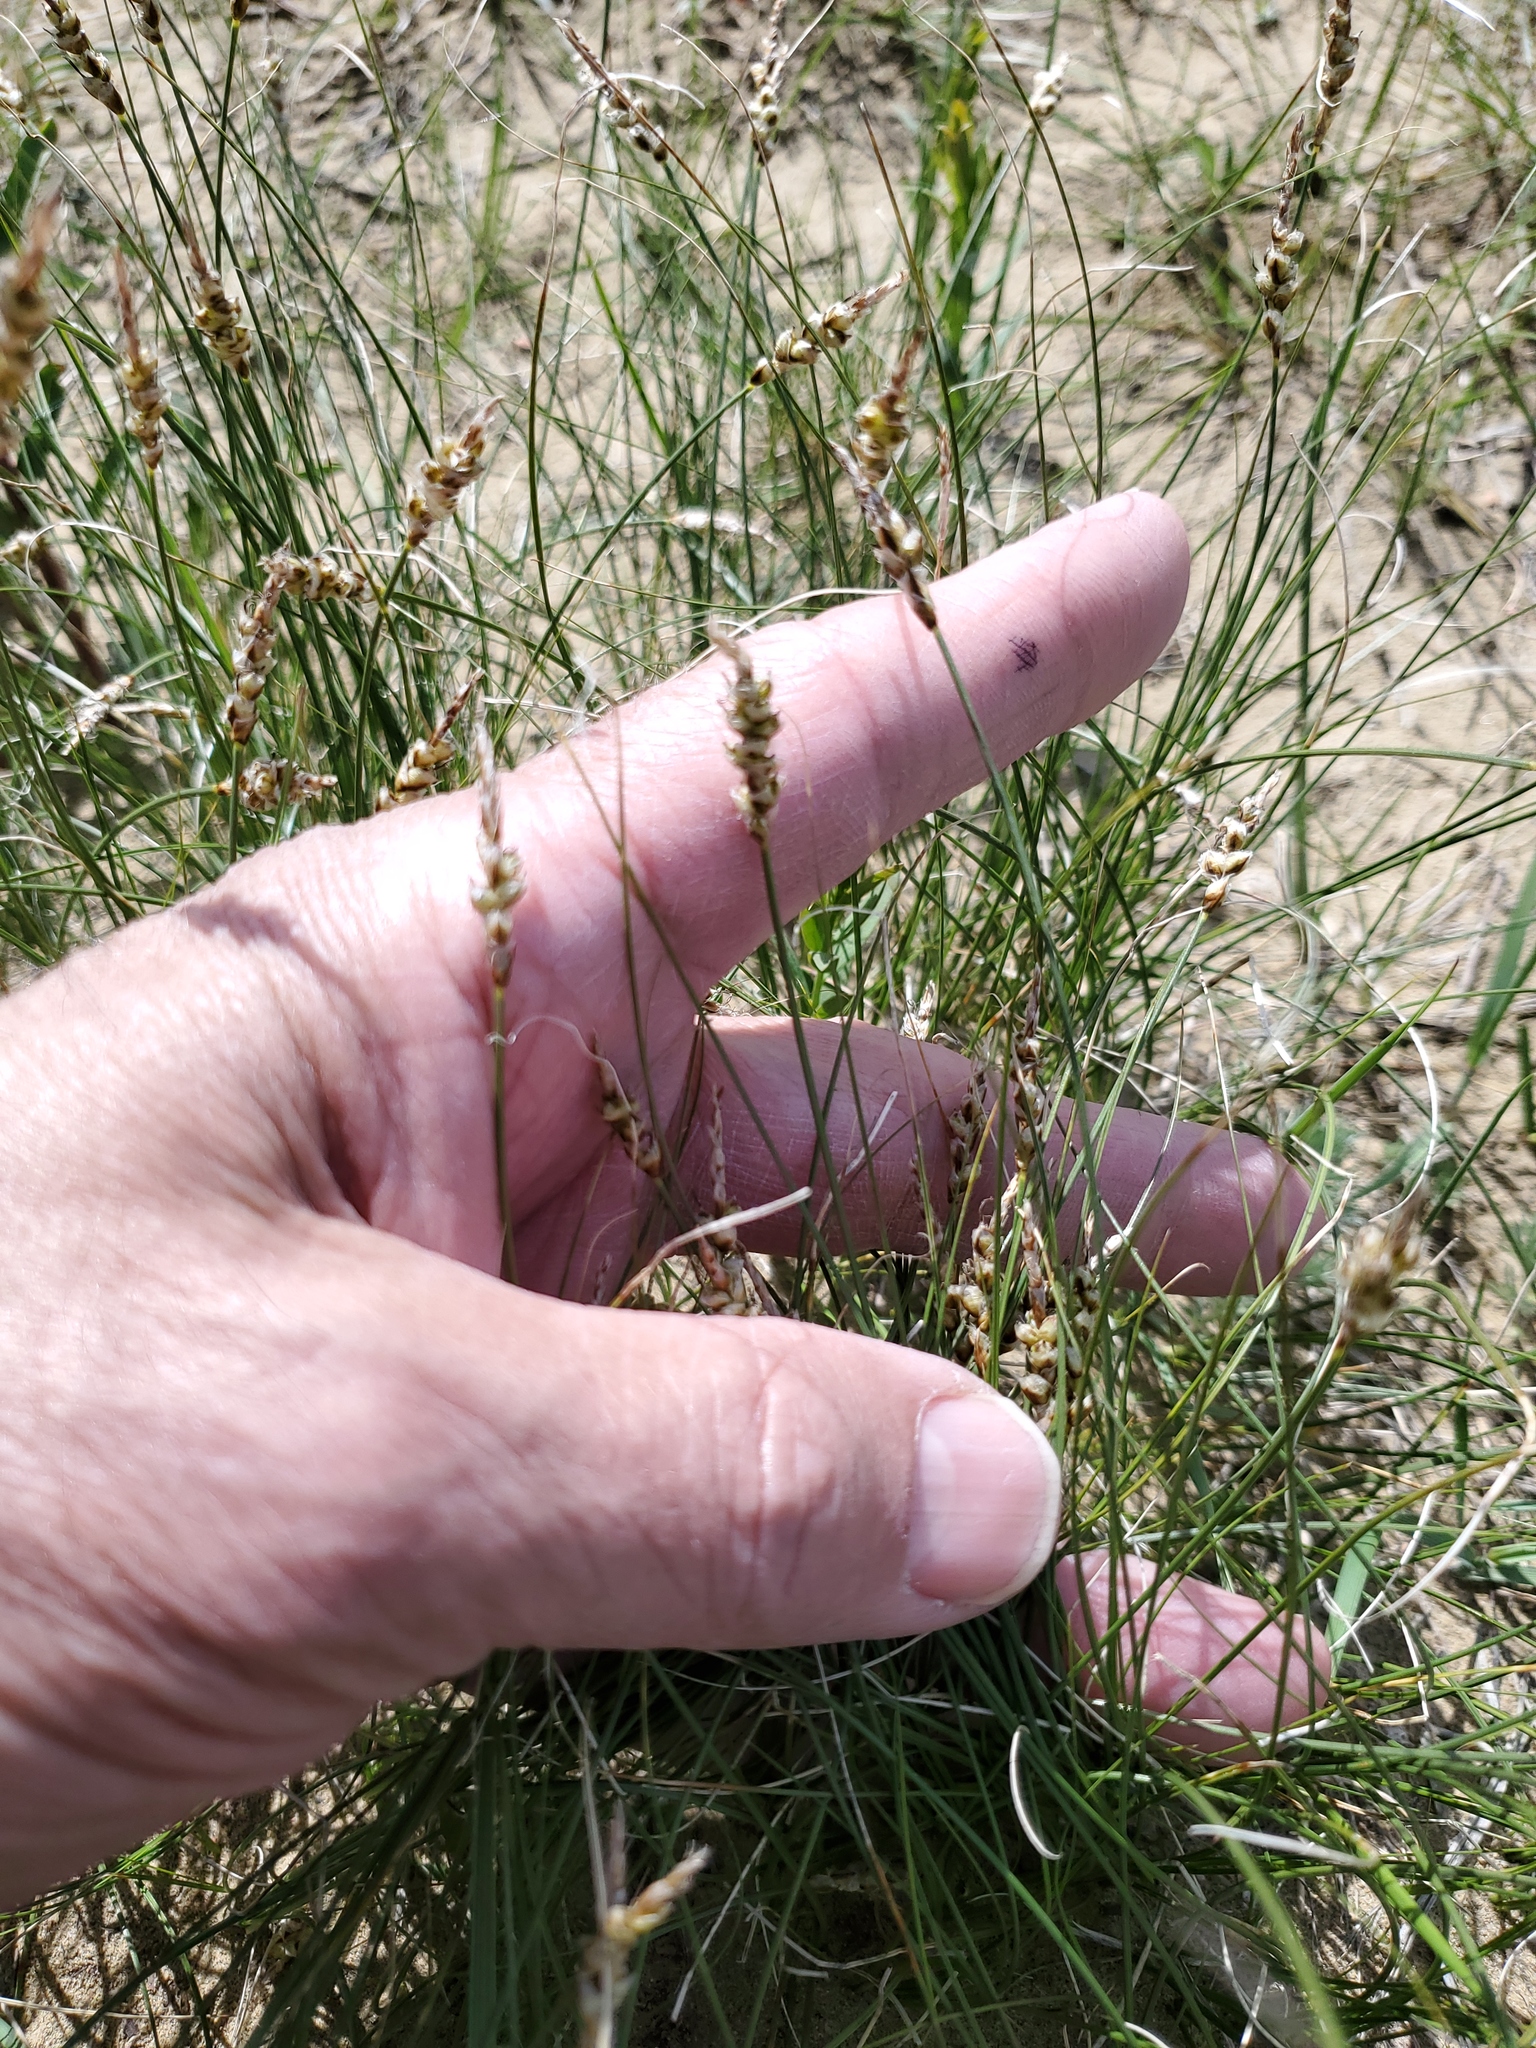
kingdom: Plantae
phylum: Tracheophyta
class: Liliopsida
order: Poales
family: Cyperaceae
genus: Carex
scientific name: Carex filifolia
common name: Threadleaf sedge
